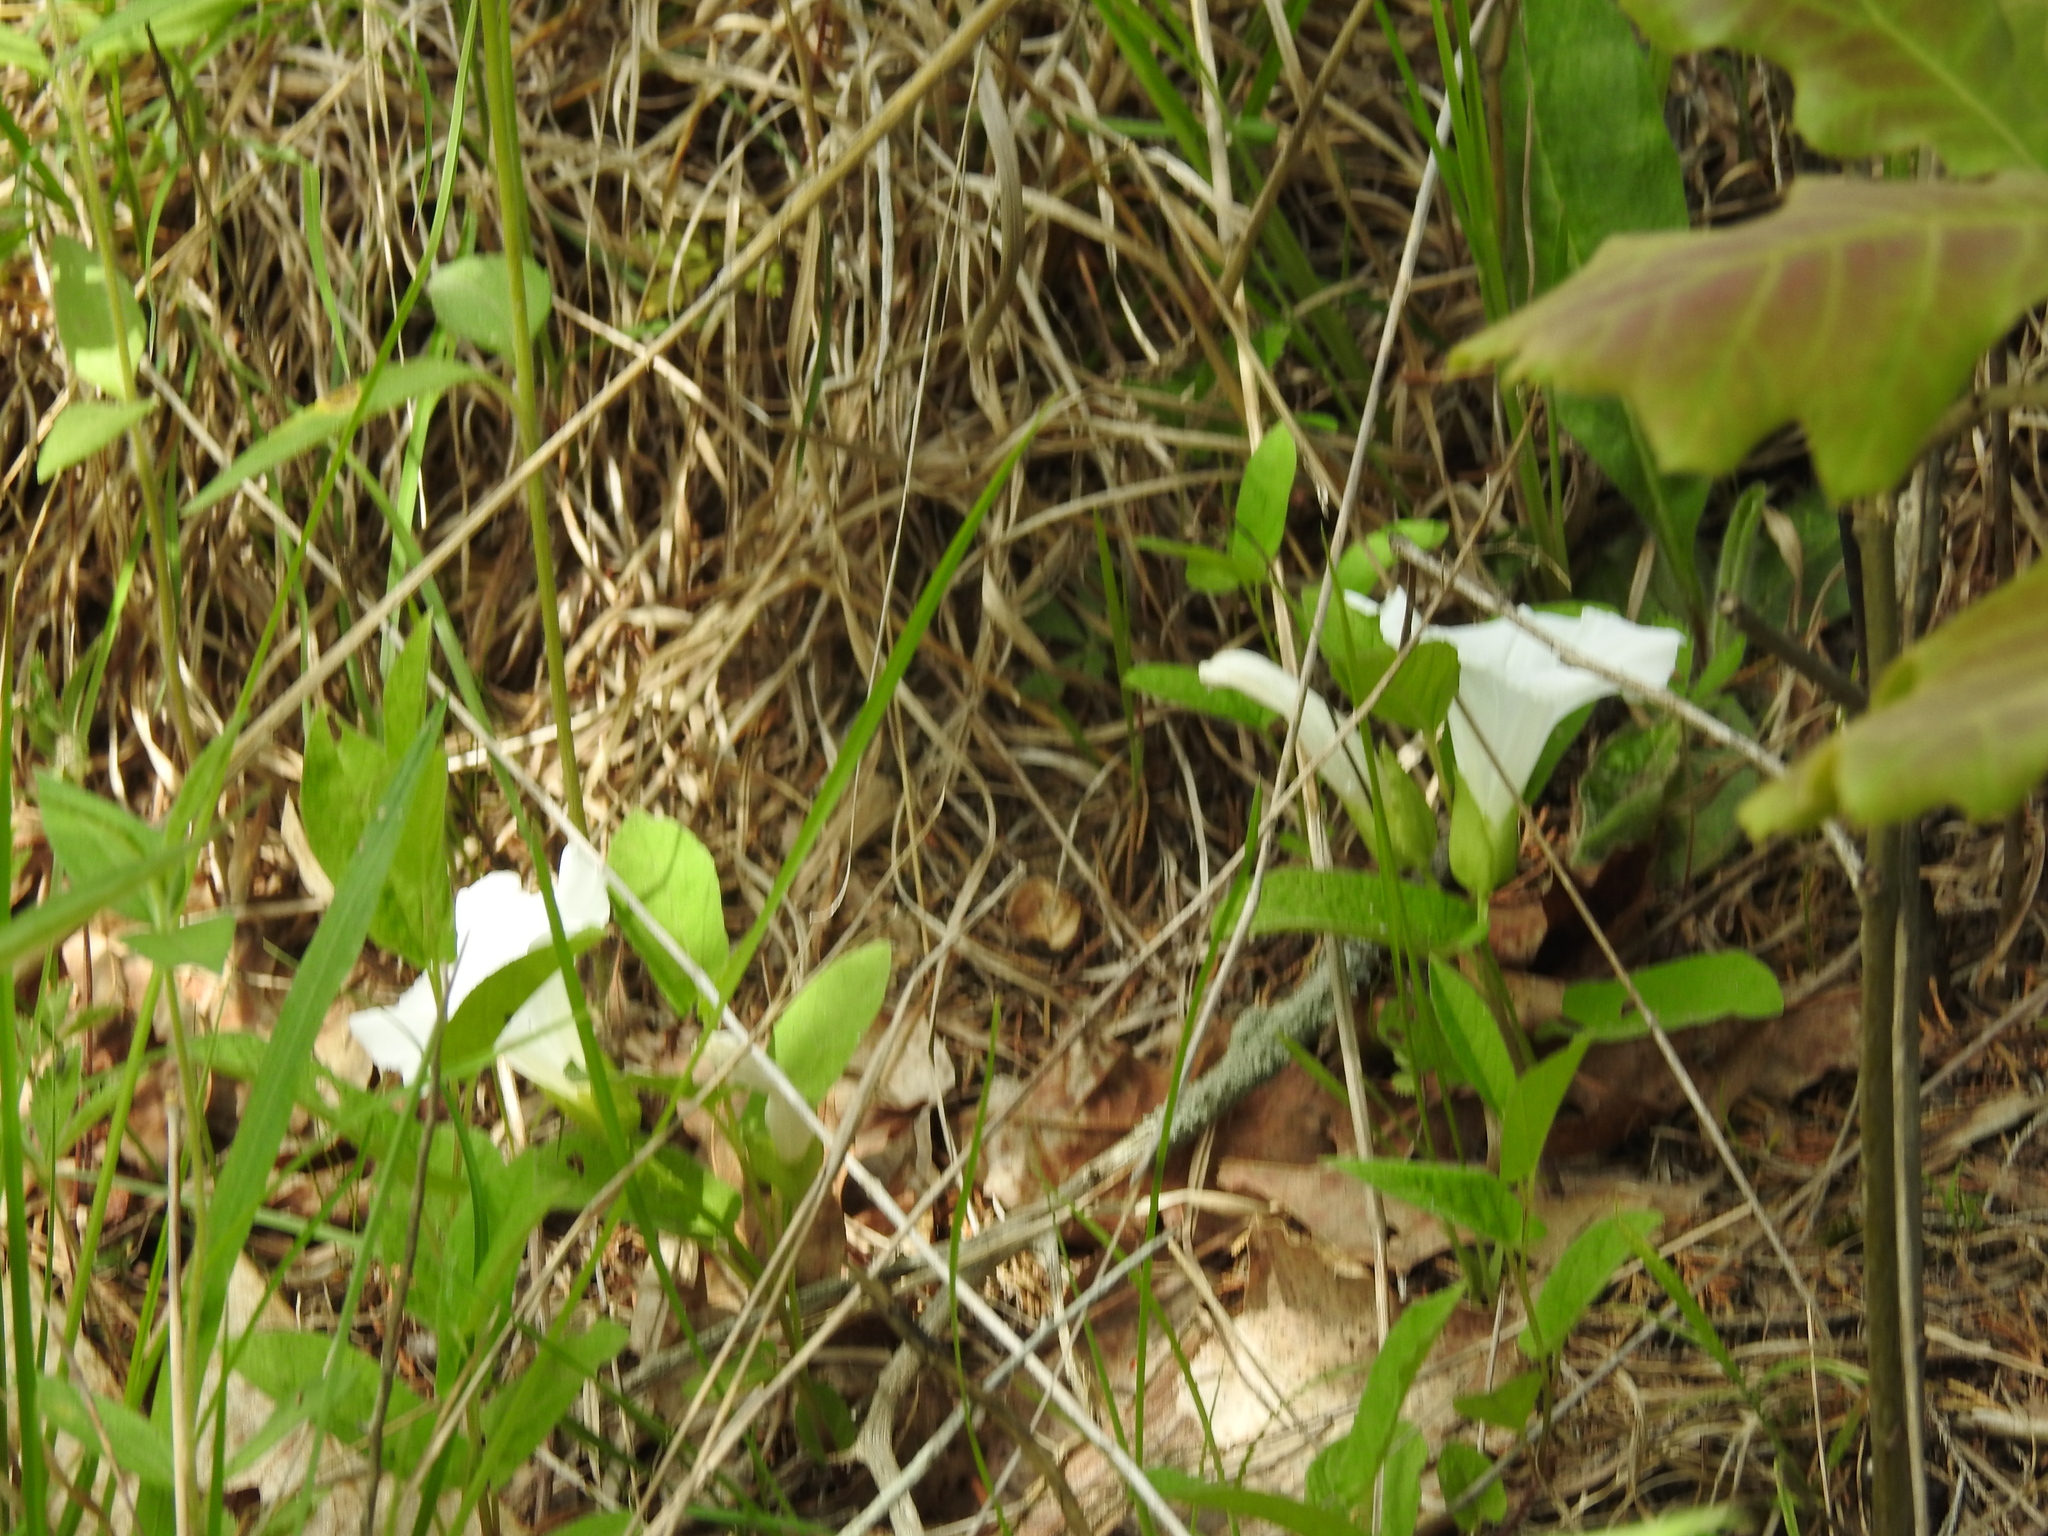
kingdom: Plantae
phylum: Tracheophyta
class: Magnoliopsida
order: Solanales
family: Convolvulaceae
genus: Calystegia
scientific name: Calystegia spithamaea
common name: Dwarf bindweed
